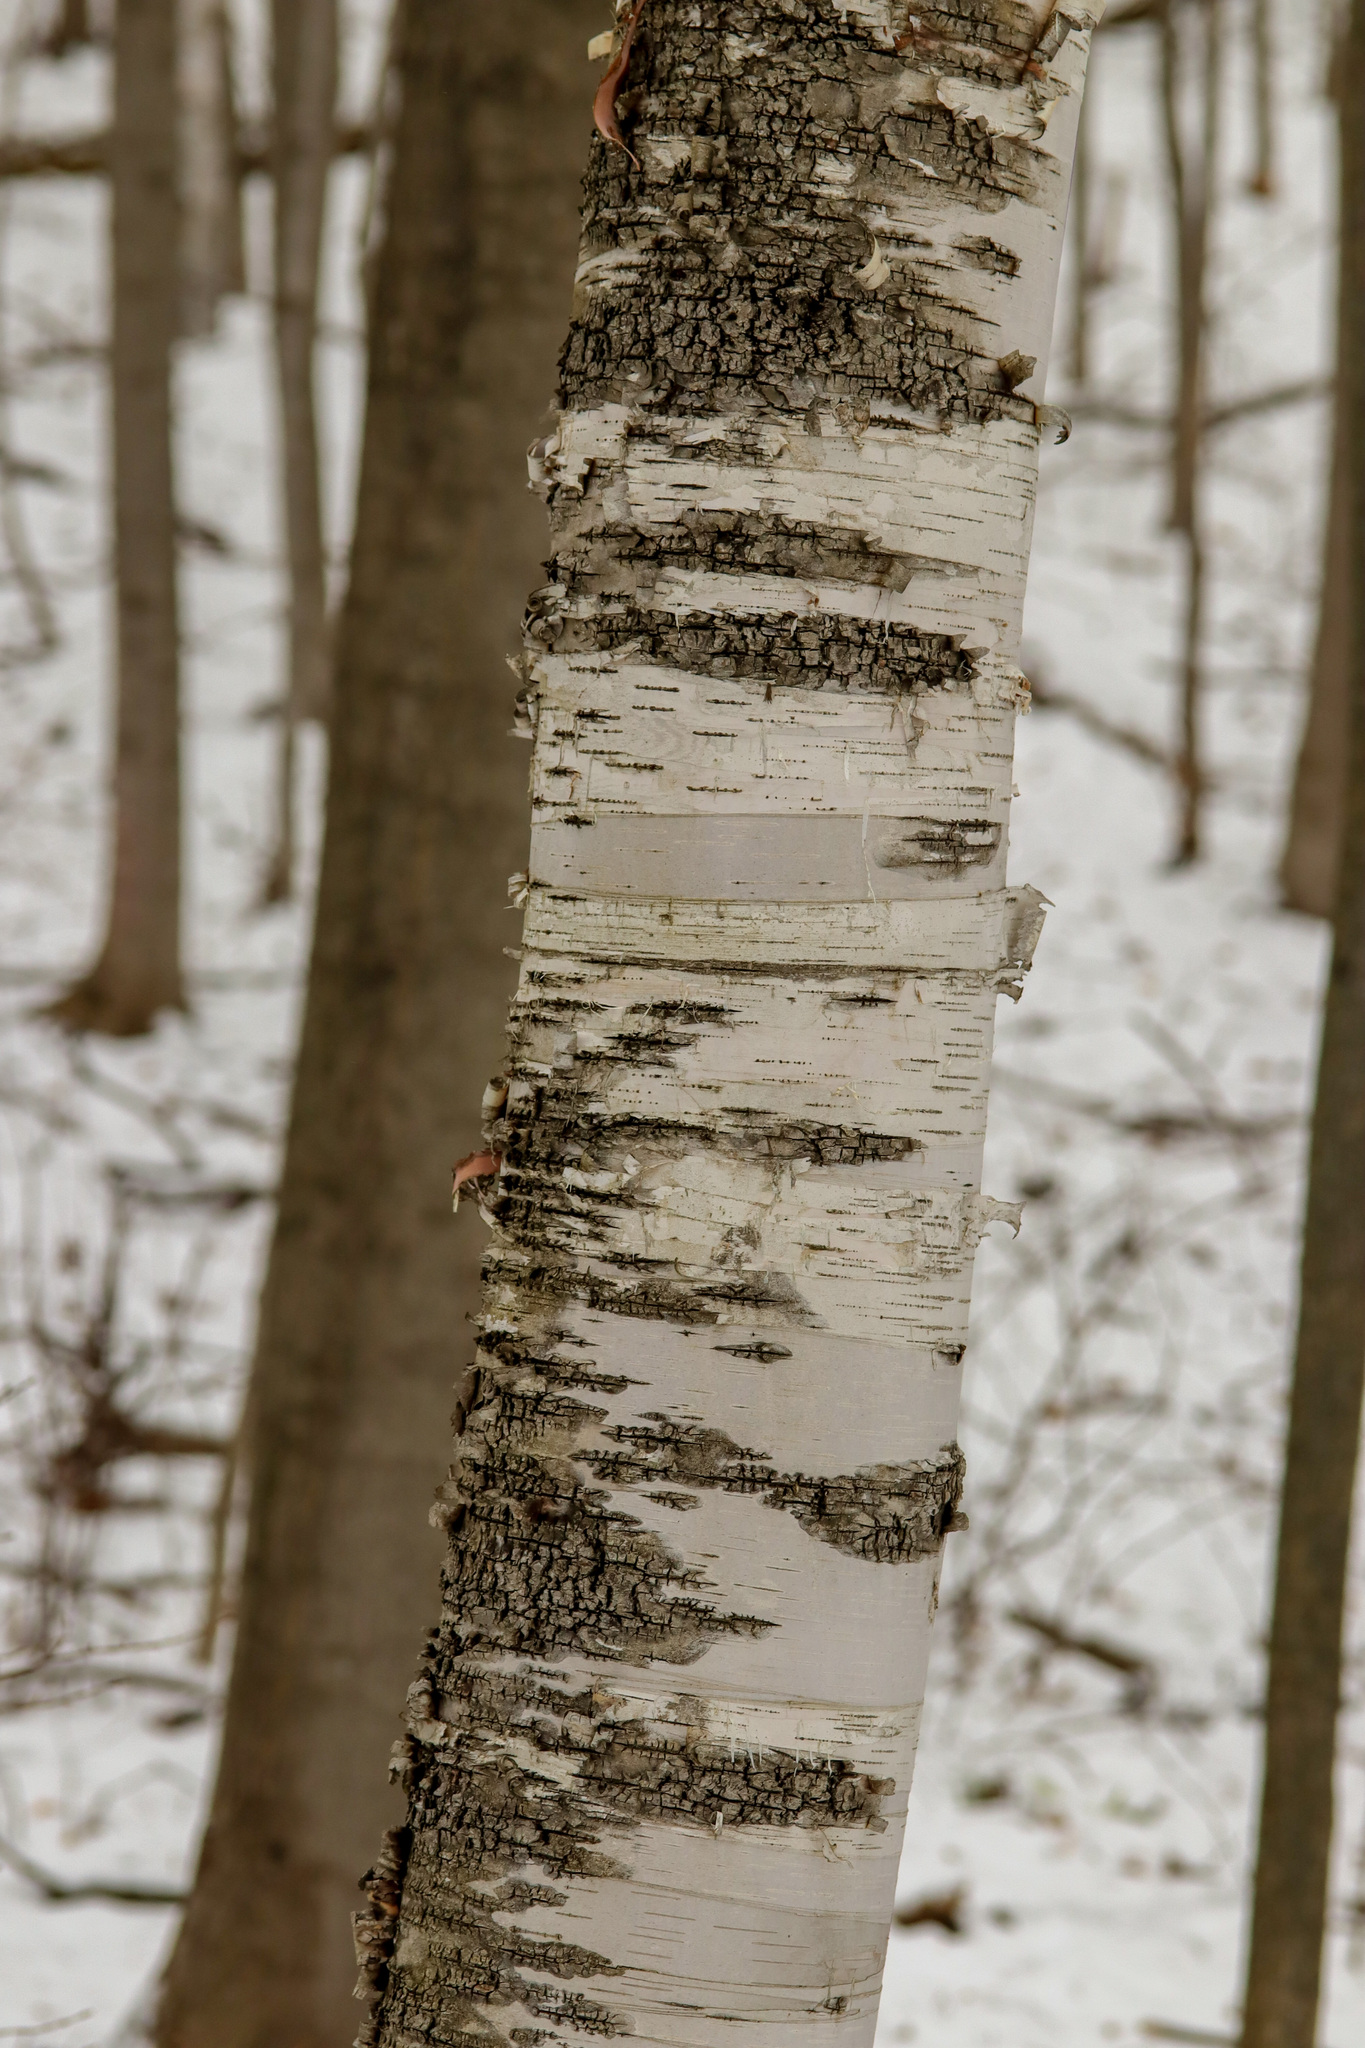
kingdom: Plantae
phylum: Tracheophyta
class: Magnoliopsida
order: Fagales
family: Betulaceae
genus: Betula
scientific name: Betula papyrifera
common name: Paper birch
